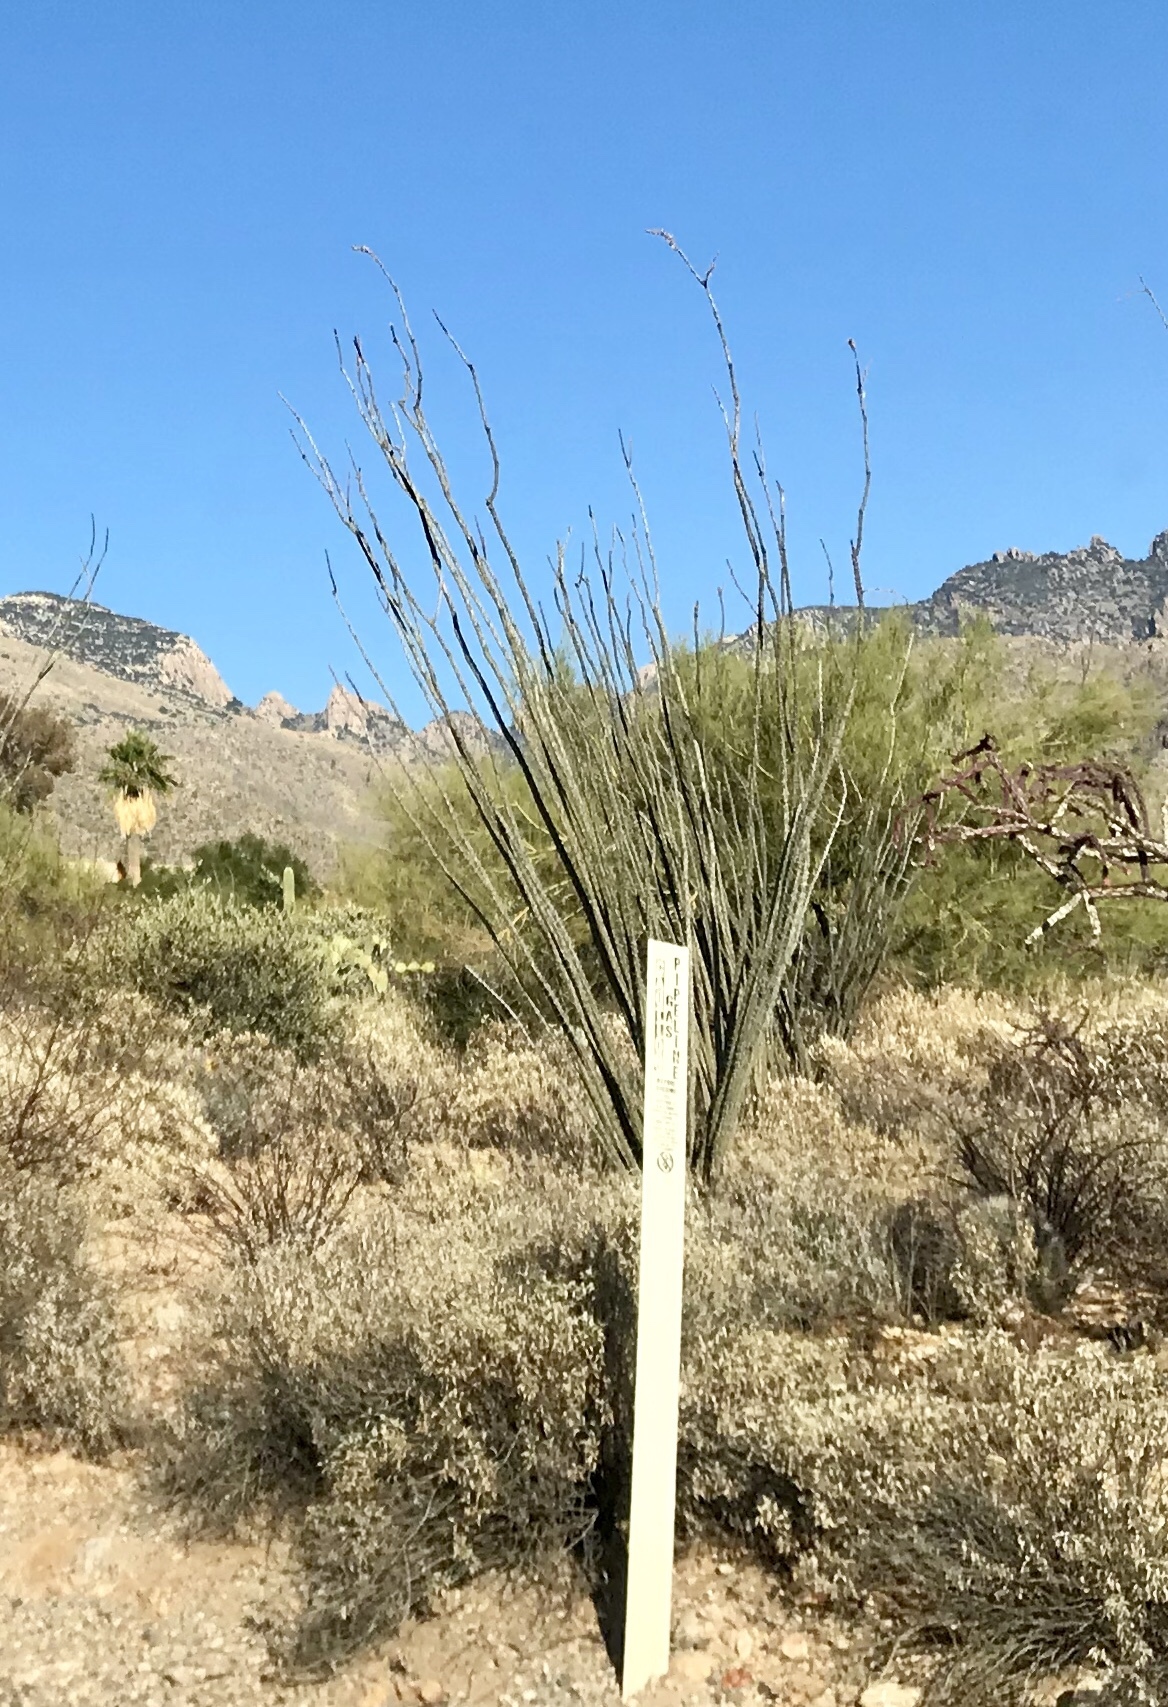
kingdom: Plantae
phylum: Tracheophyta
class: Magnoliopsida
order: Ericales
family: Fouquieriaceae
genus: Fouquieria
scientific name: Fouquieria splendens
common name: Vine-cactus
